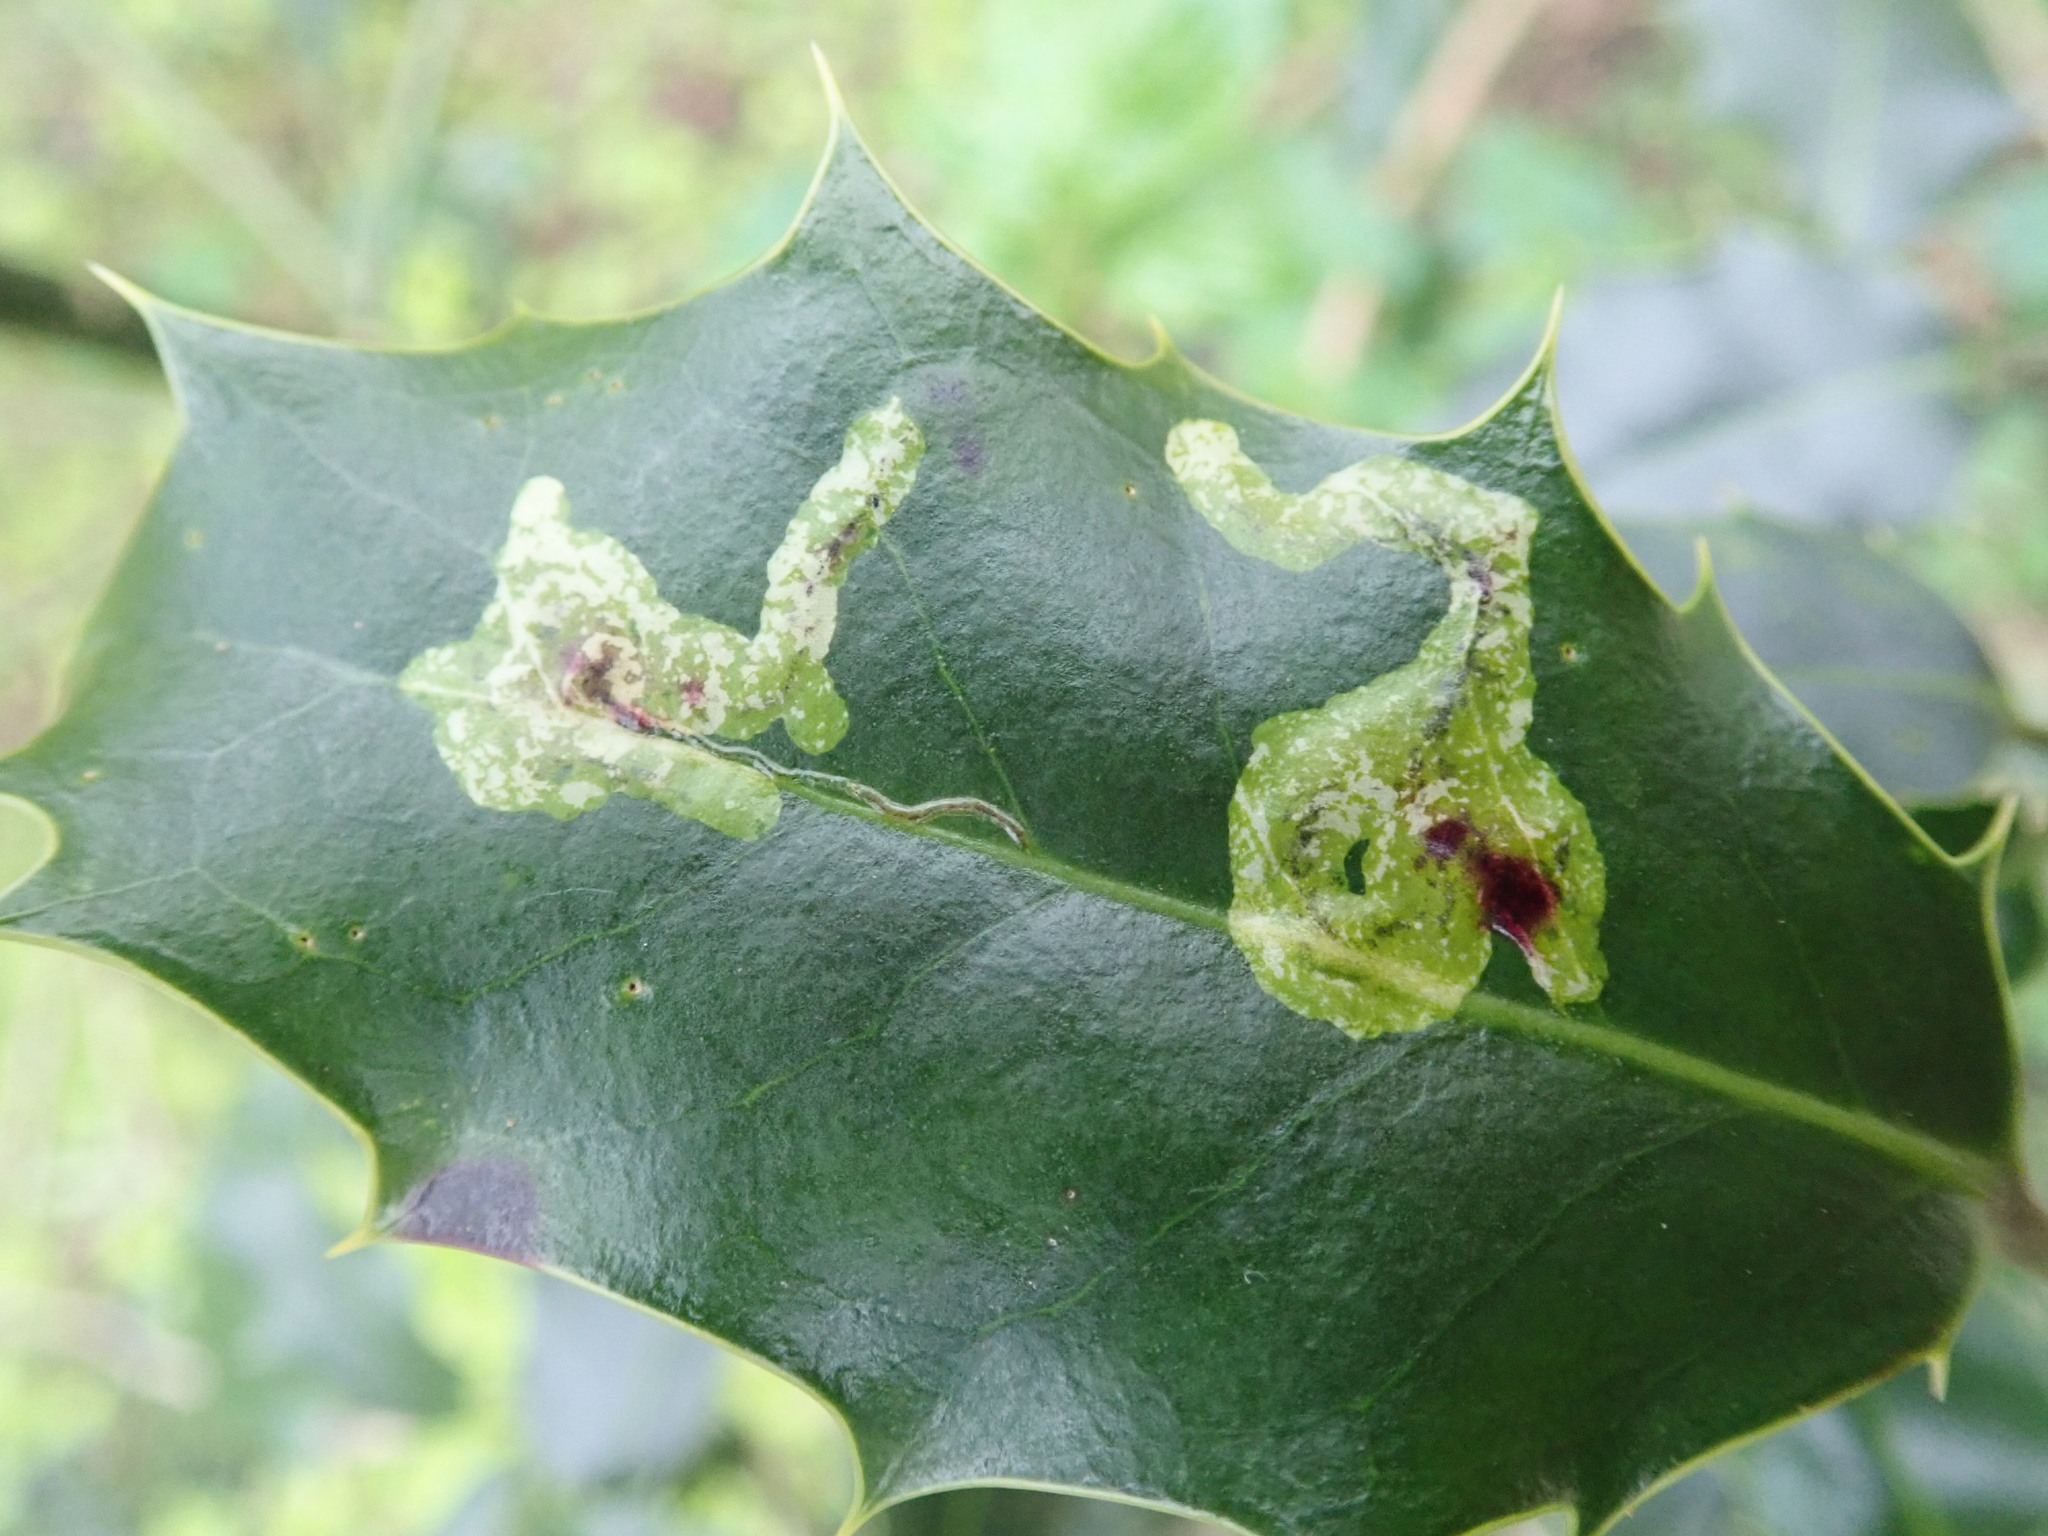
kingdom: Animalia
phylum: Arthropoda
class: Insecta
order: Diptera
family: Agromyzidae
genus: Phytomyza
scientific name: Phytomyza ilicis
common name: Holly leafminer
